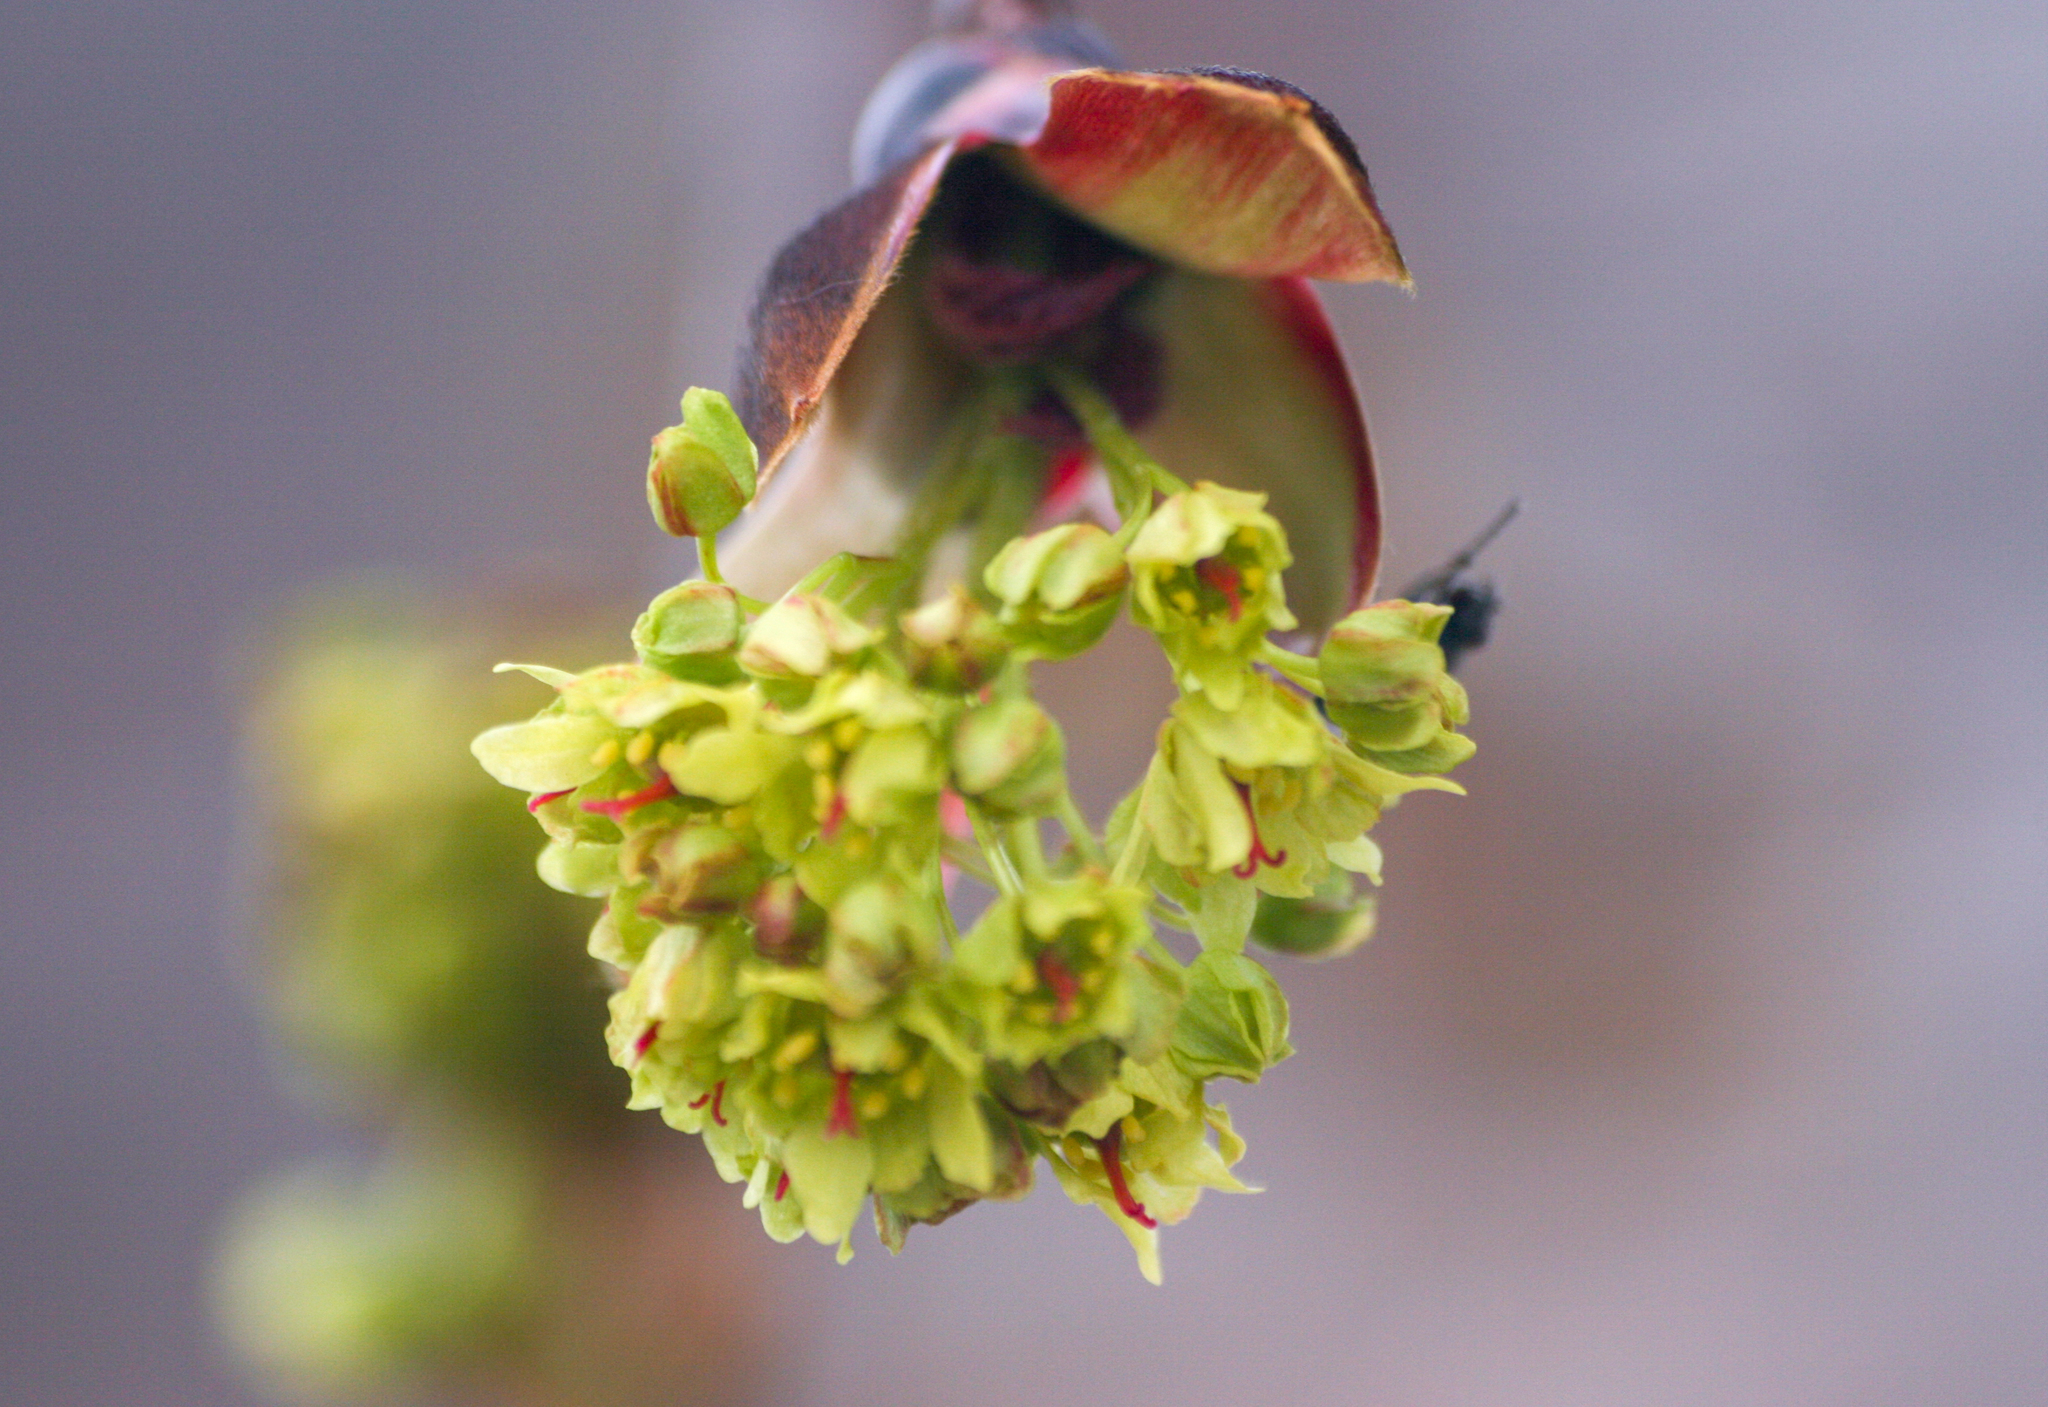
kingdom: Plantae
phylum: Tracheophyta
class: Magnoliopsida
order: Sapindales
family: Sapindaceae
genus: Acer
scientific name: Acer platanoides
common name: Norway maple
